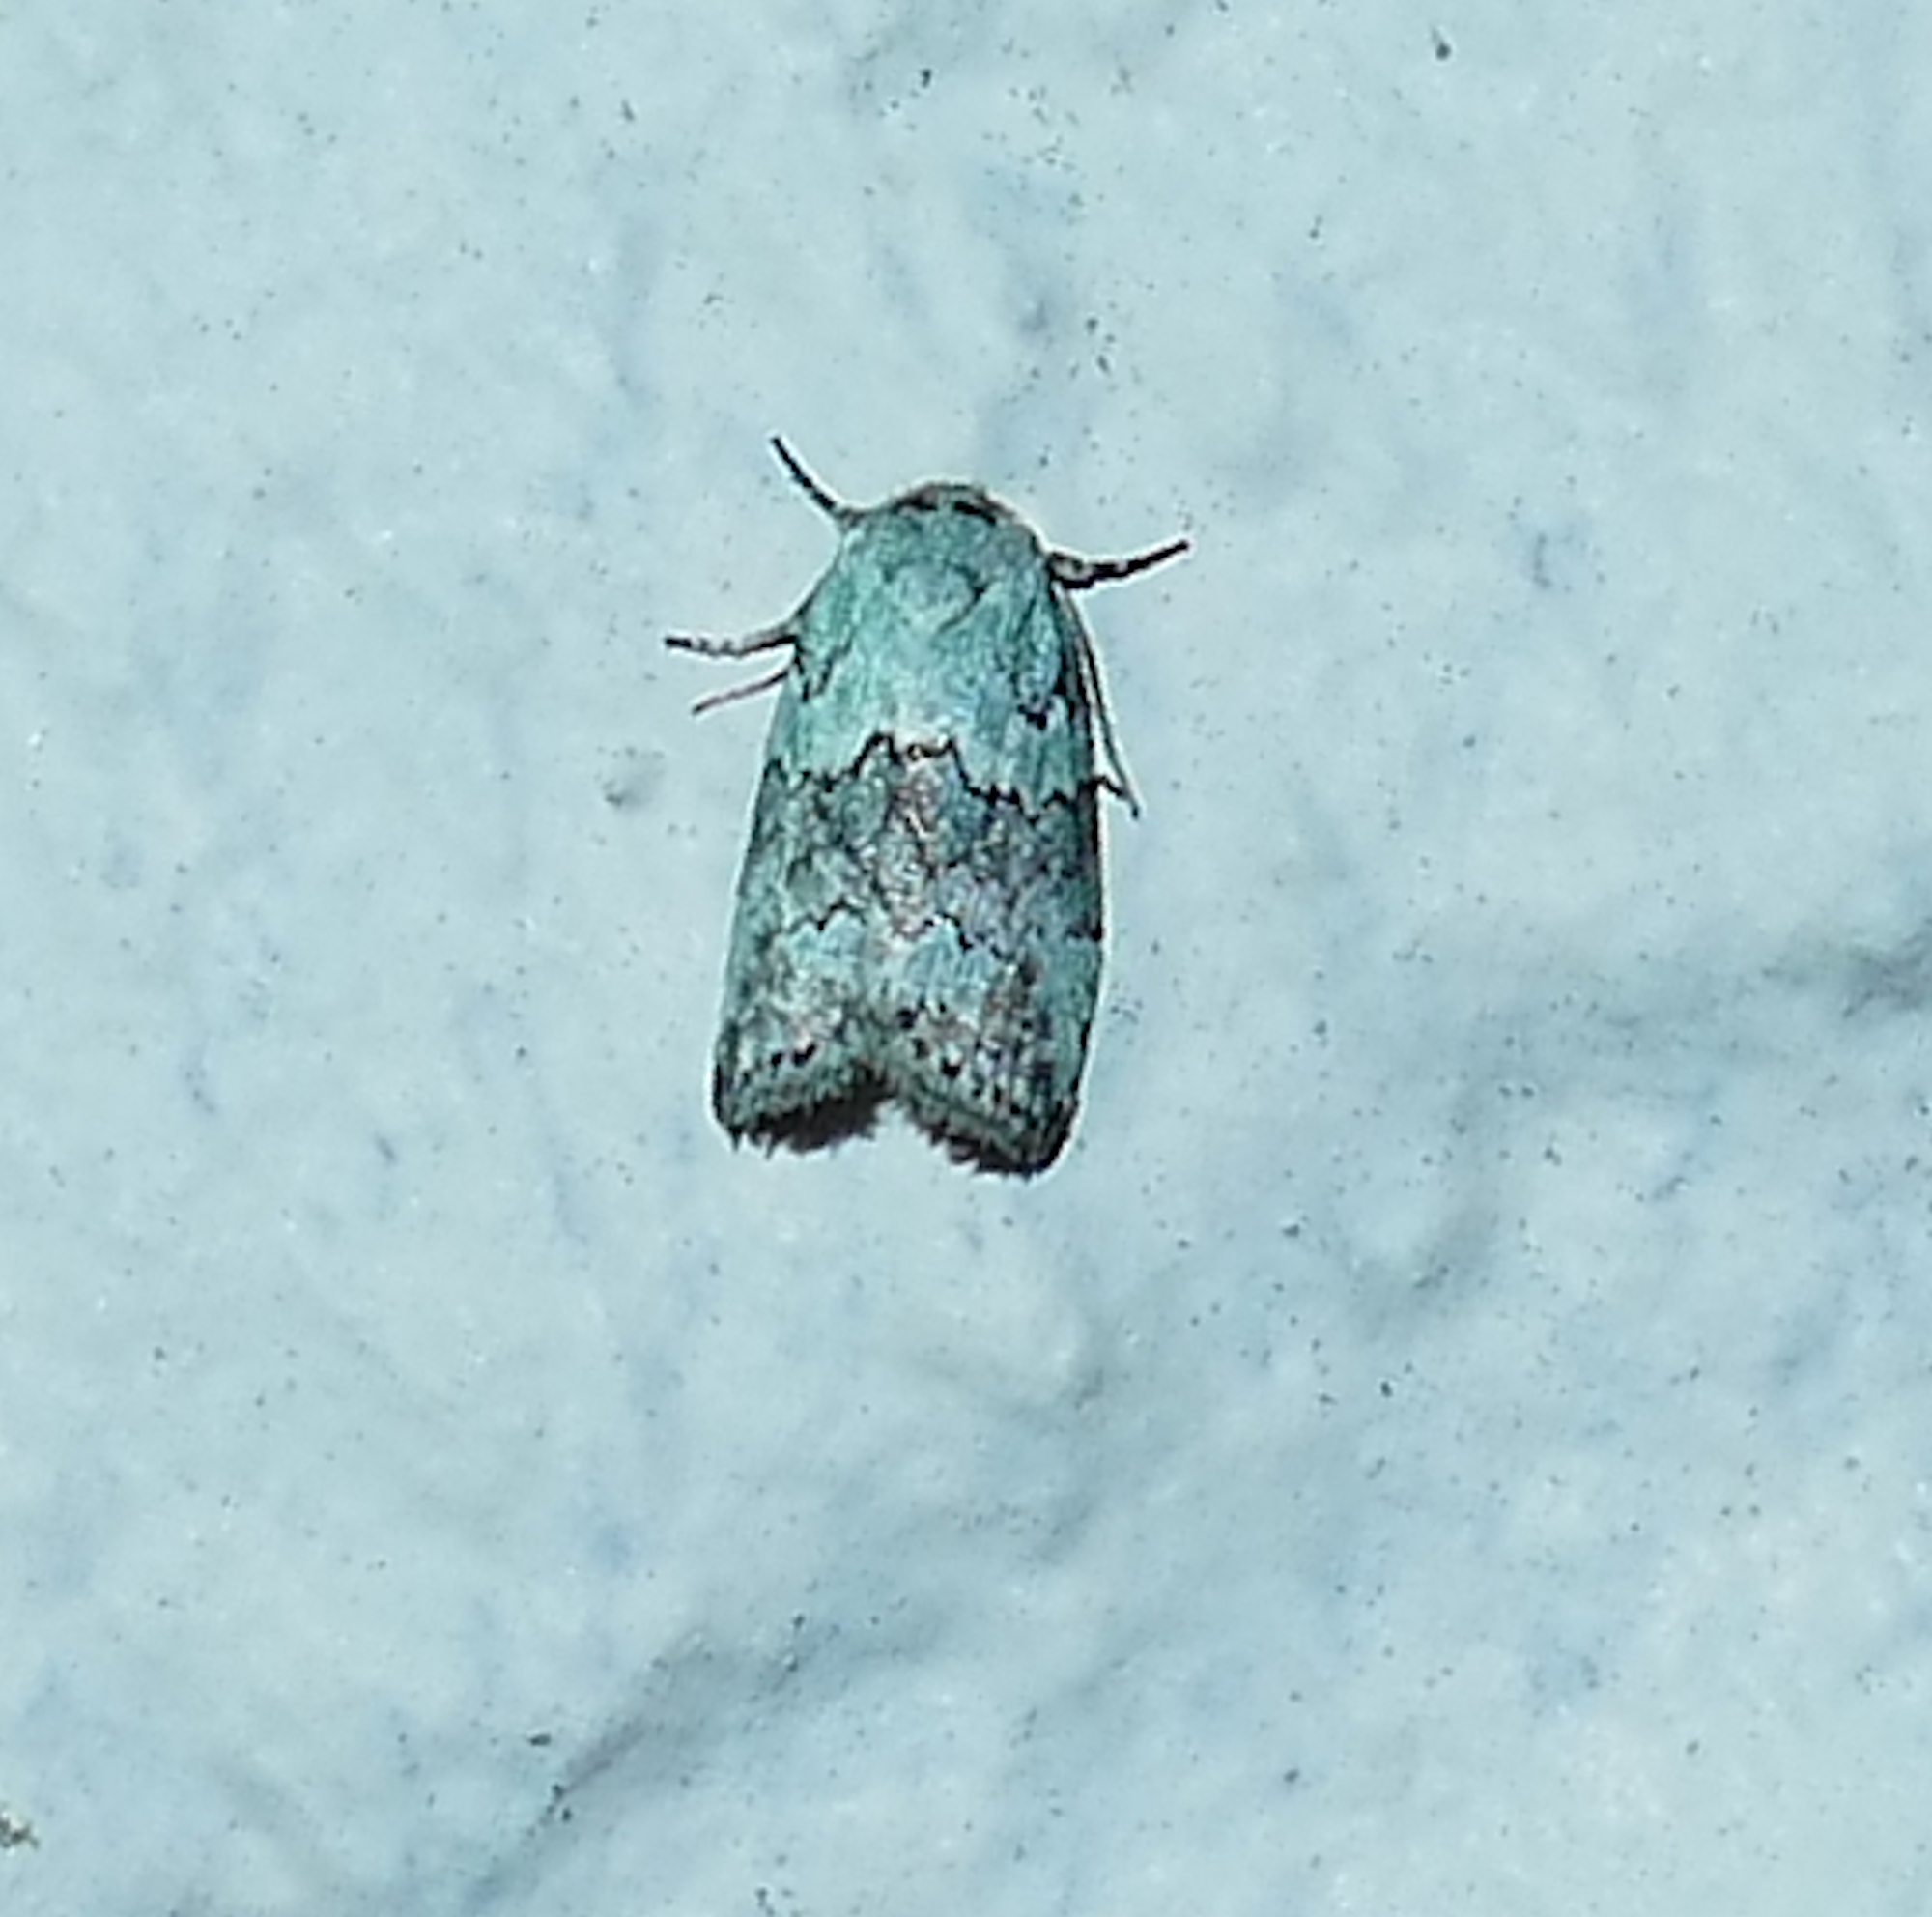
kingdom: Animalia
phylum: Arthropoda
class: Insecta
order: Lepidoptera
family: Nolidae
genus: Afrida
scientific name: Afrida ydatodes
